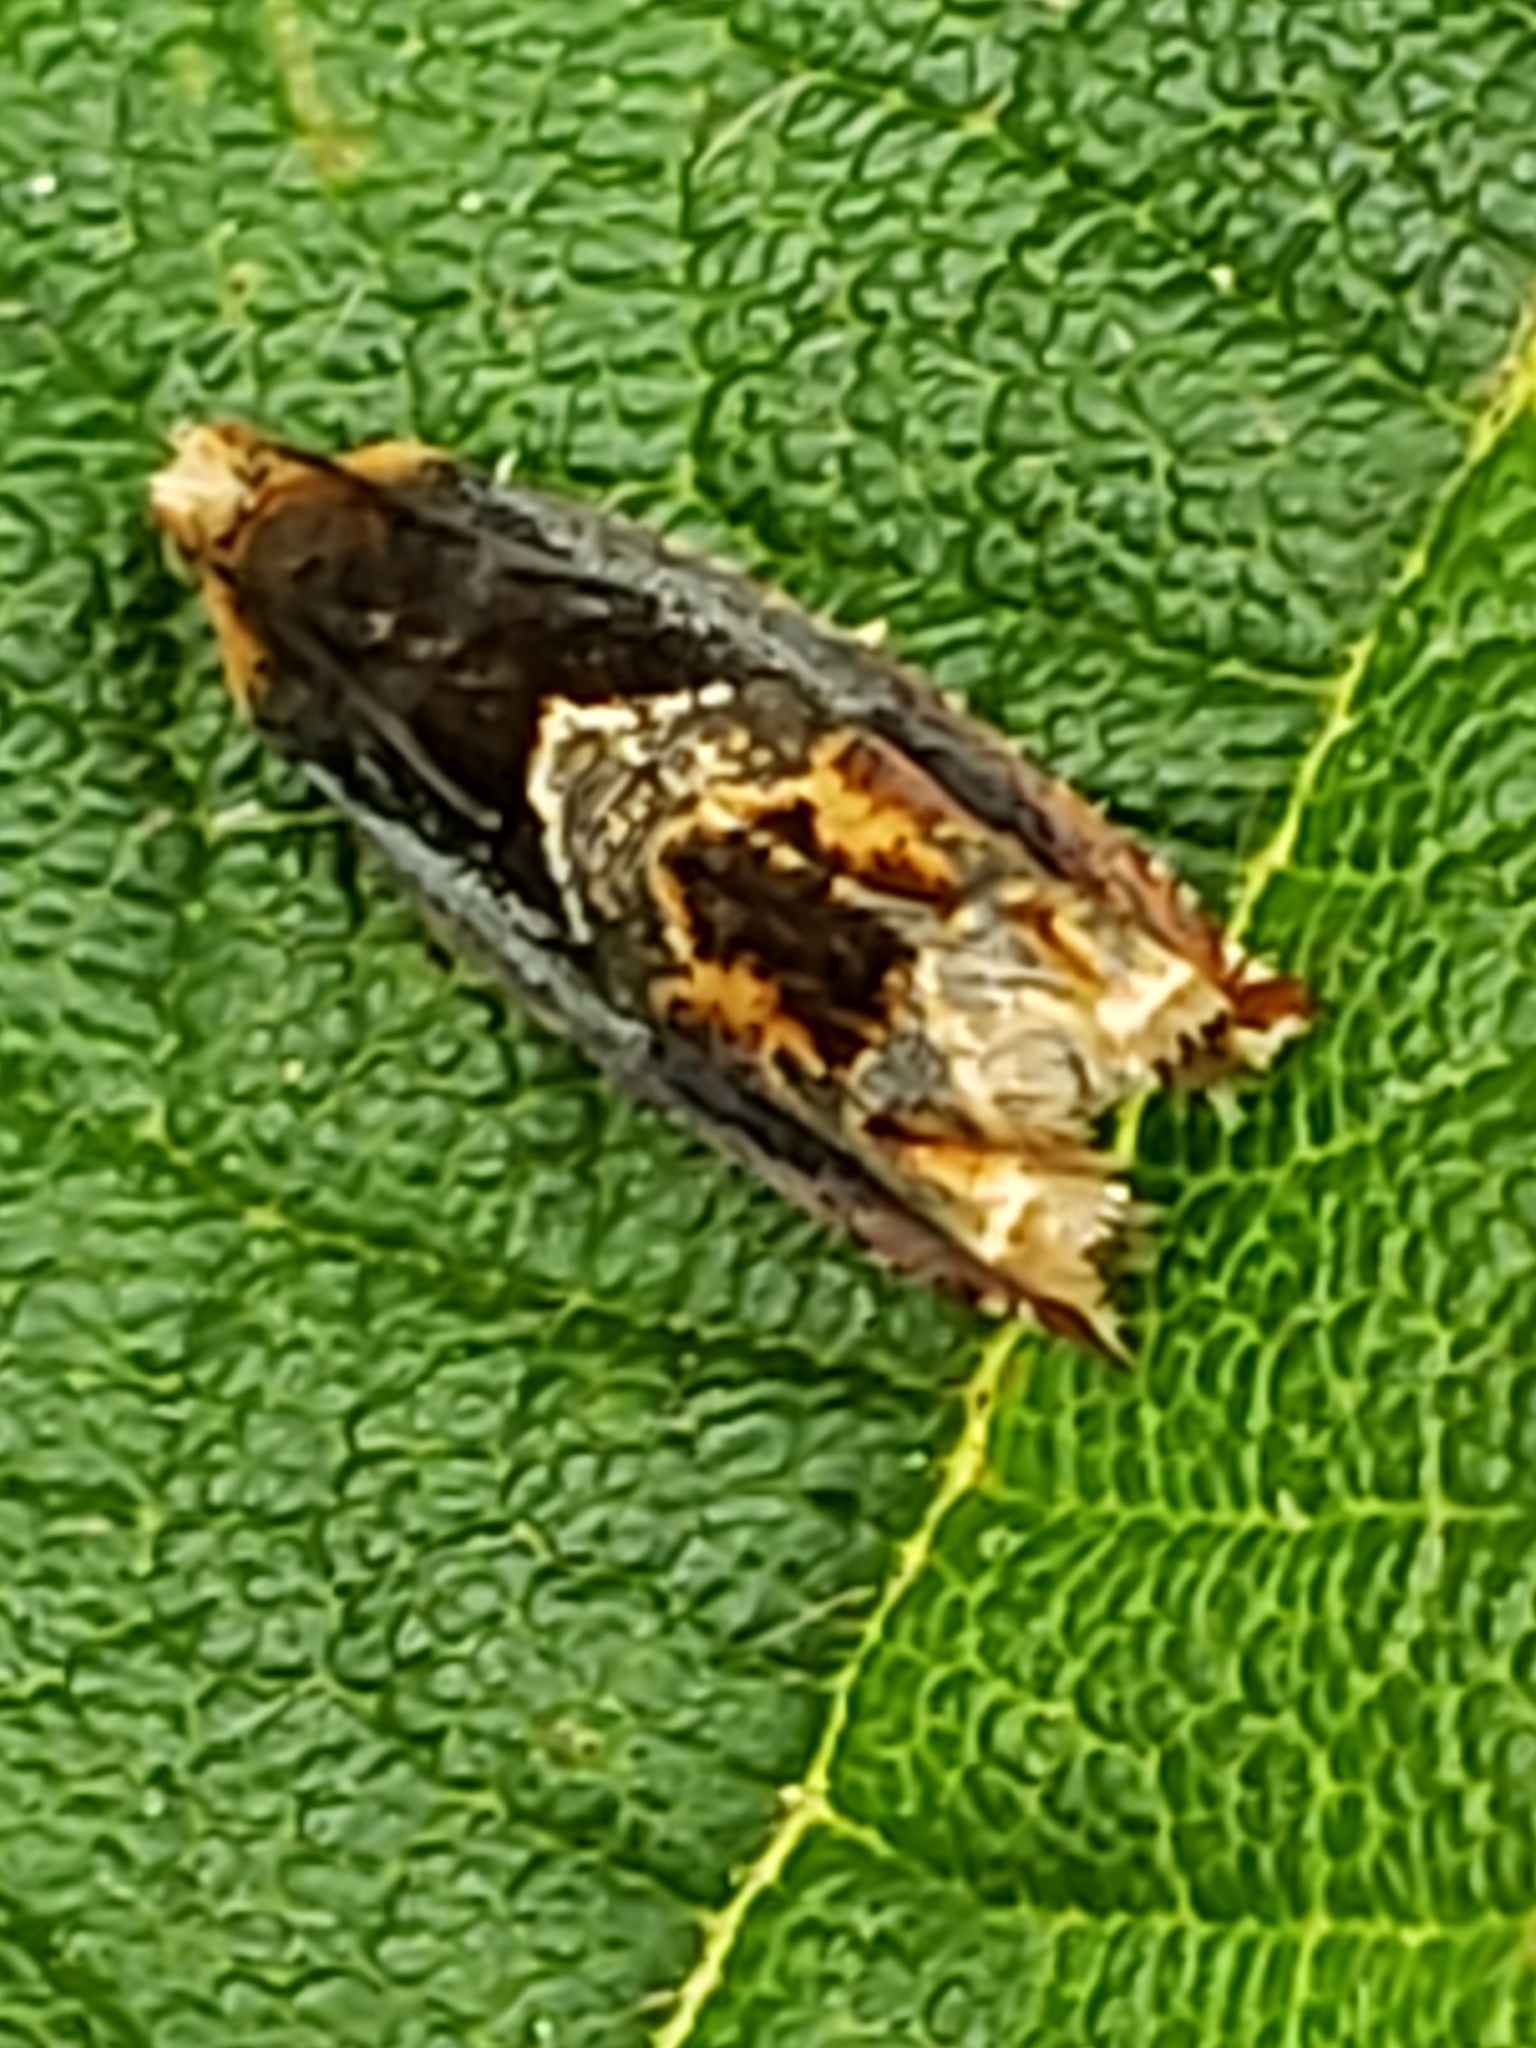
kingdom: Animalia
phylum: Arthropoda
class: Insecta
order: Lepidoptera
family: Tortricidae
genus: Ancylis
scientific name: Ancylis muricana
